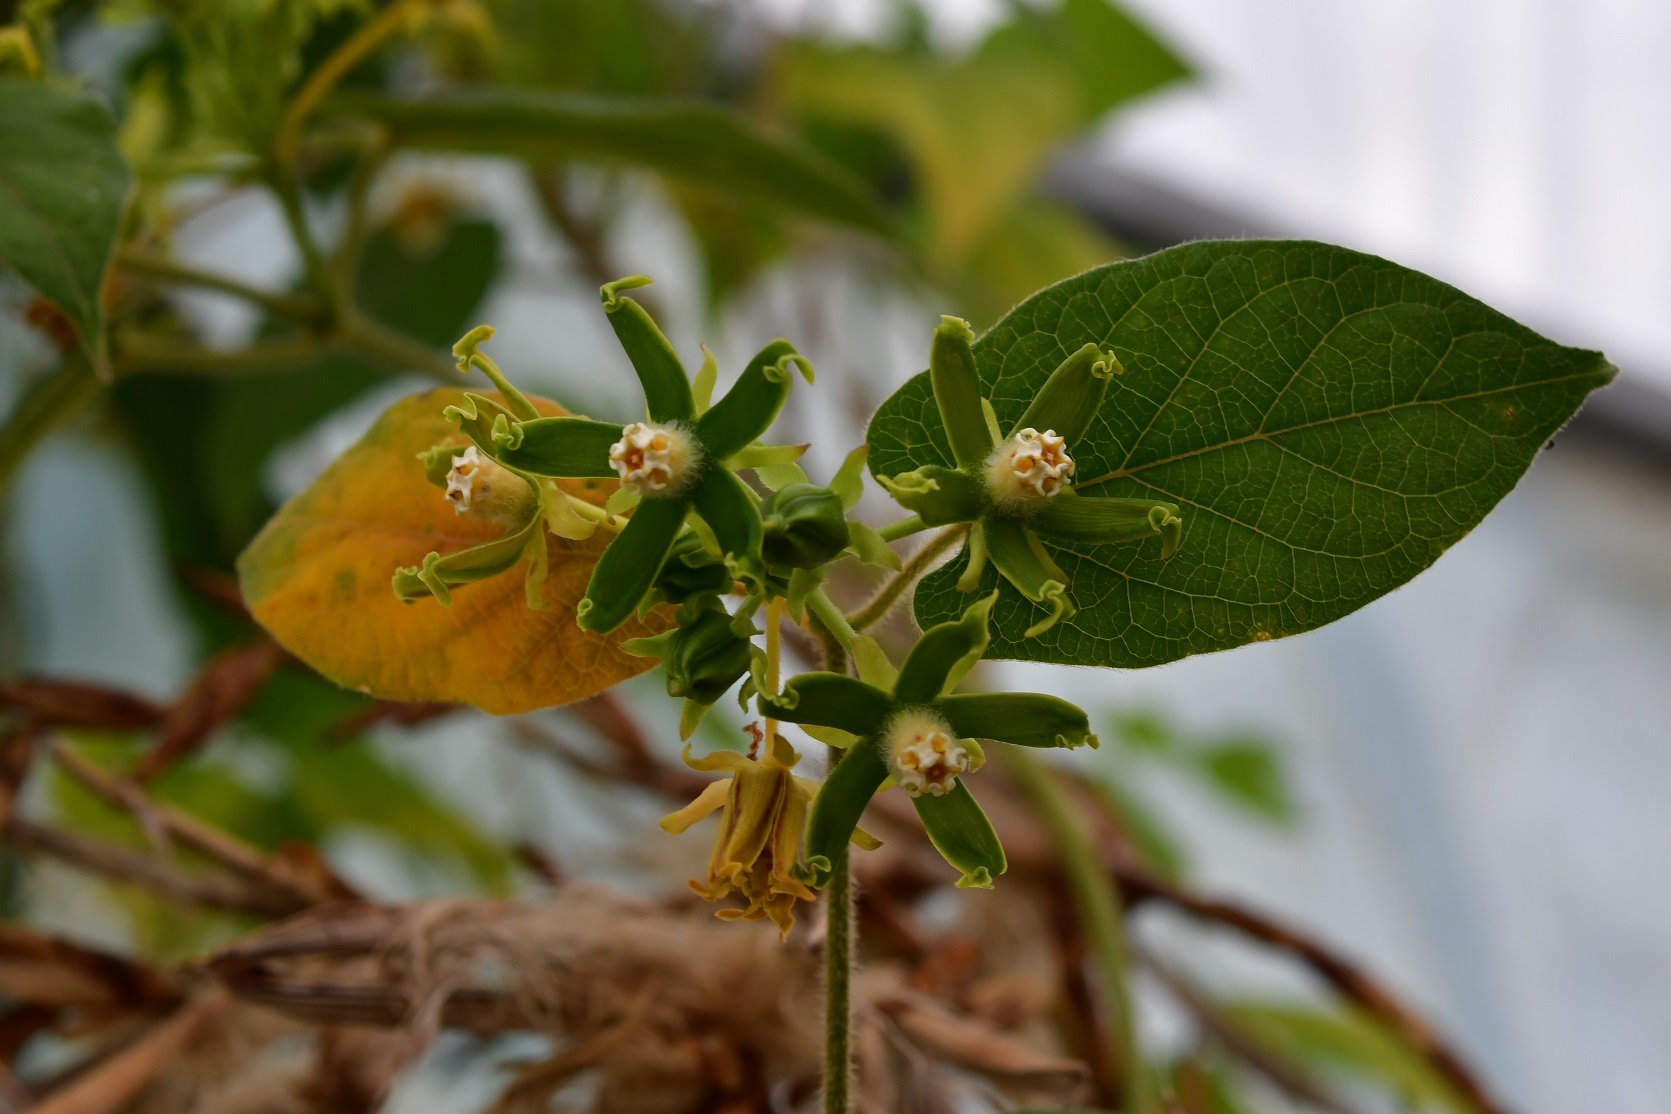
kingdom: Plantae
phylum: Tracheophyta
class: Magnoliopsida
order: Gentianales
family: Apocynaceae
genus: Gonolobus
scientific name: Gonolobus stenosepalus
